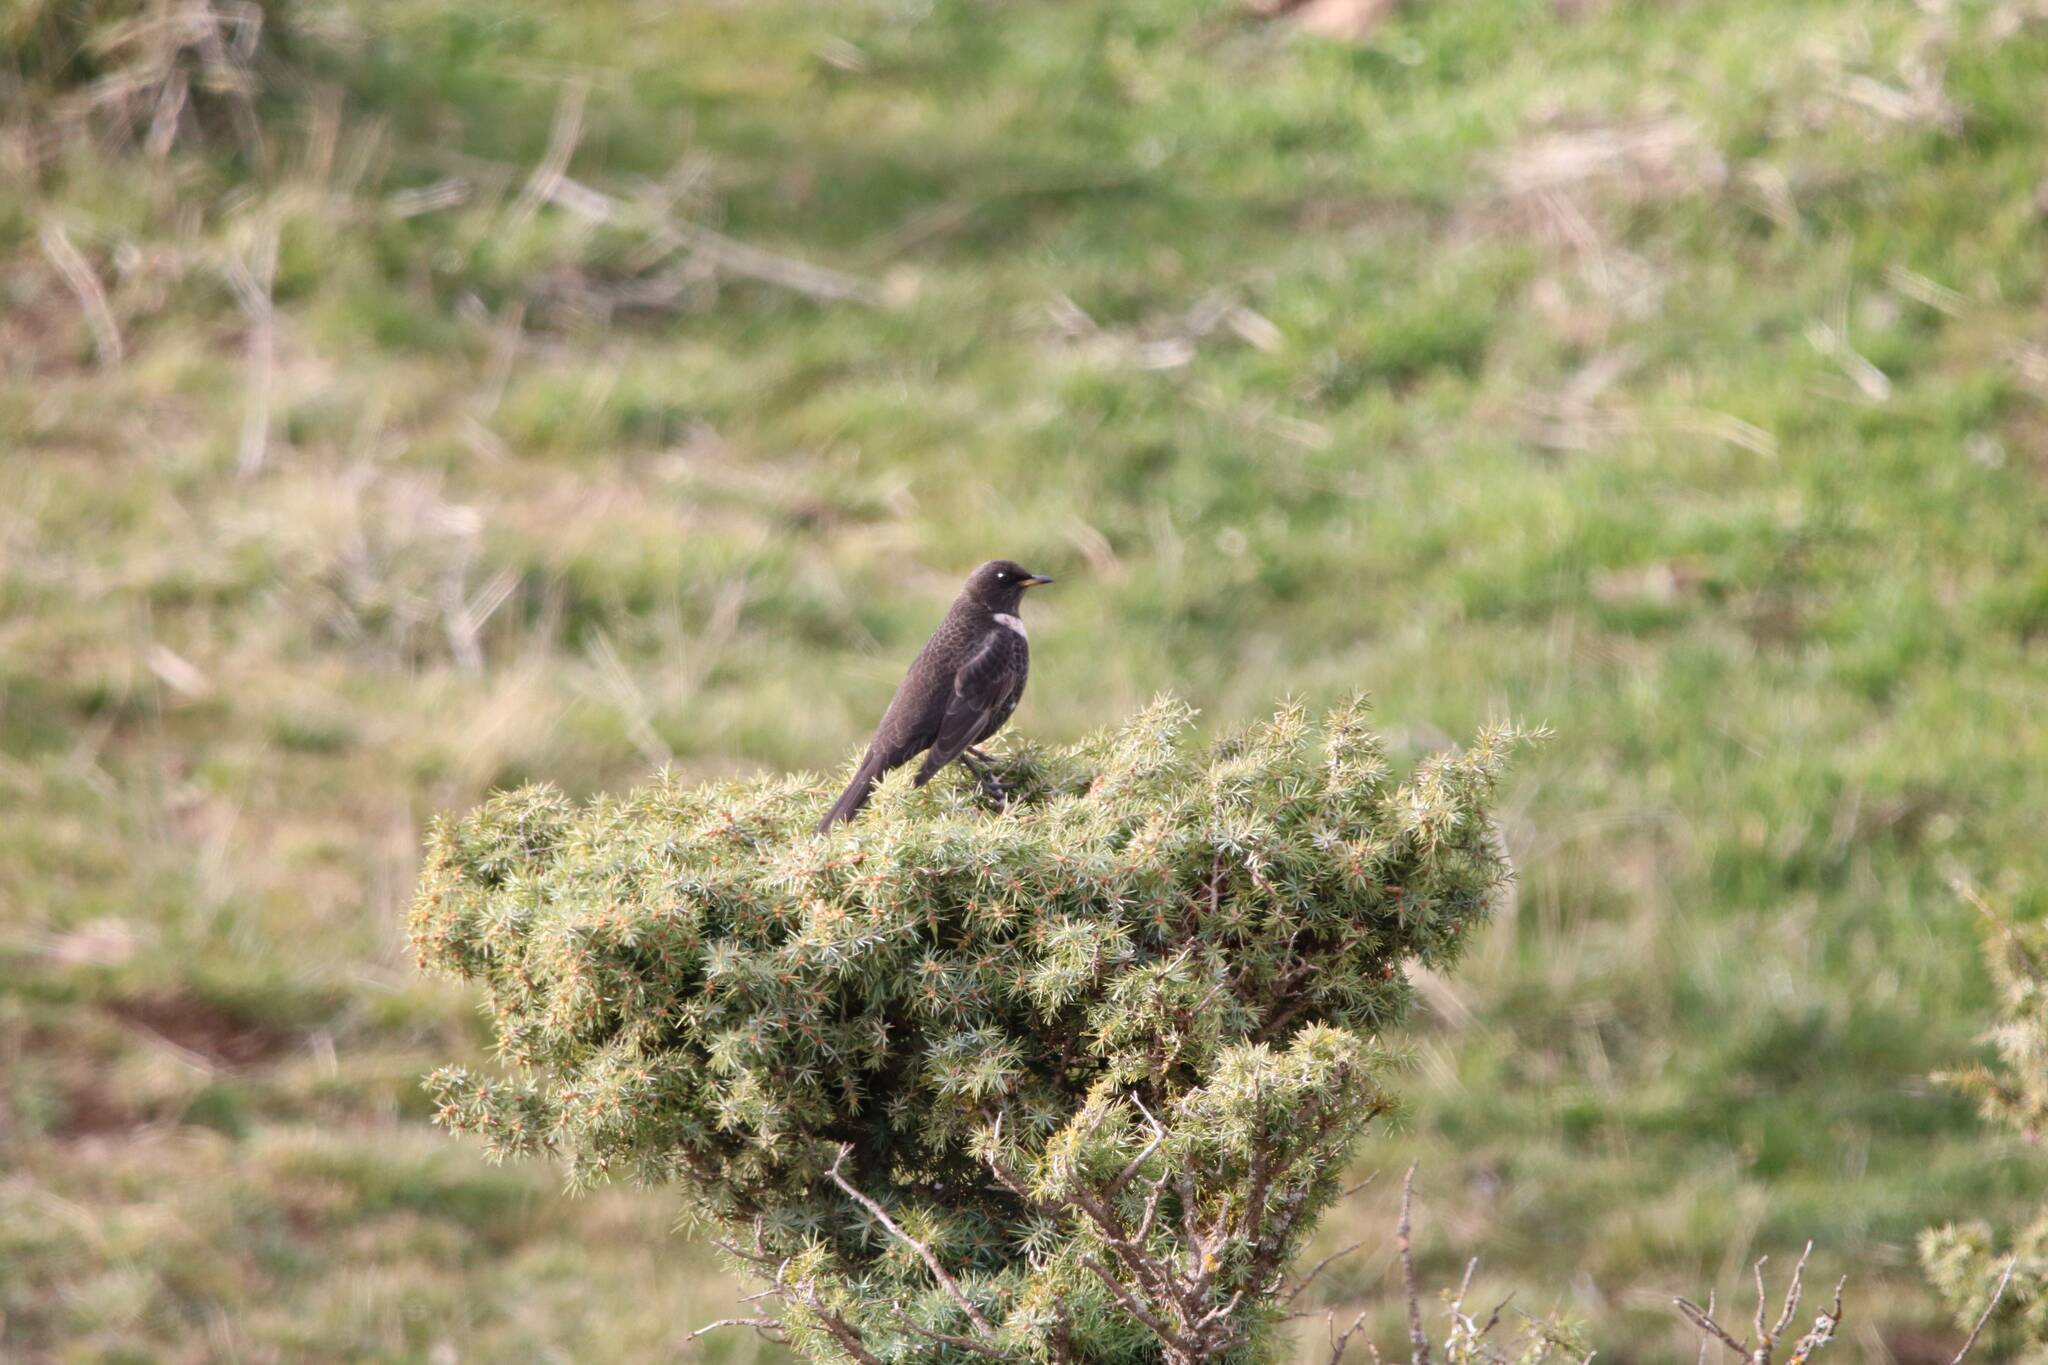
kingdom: Animalia
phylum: Chordata
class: Aves
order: Passeriformes
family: Turdidae
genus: Turdus
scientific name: Turdus torquatus
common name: Ring ouzel
